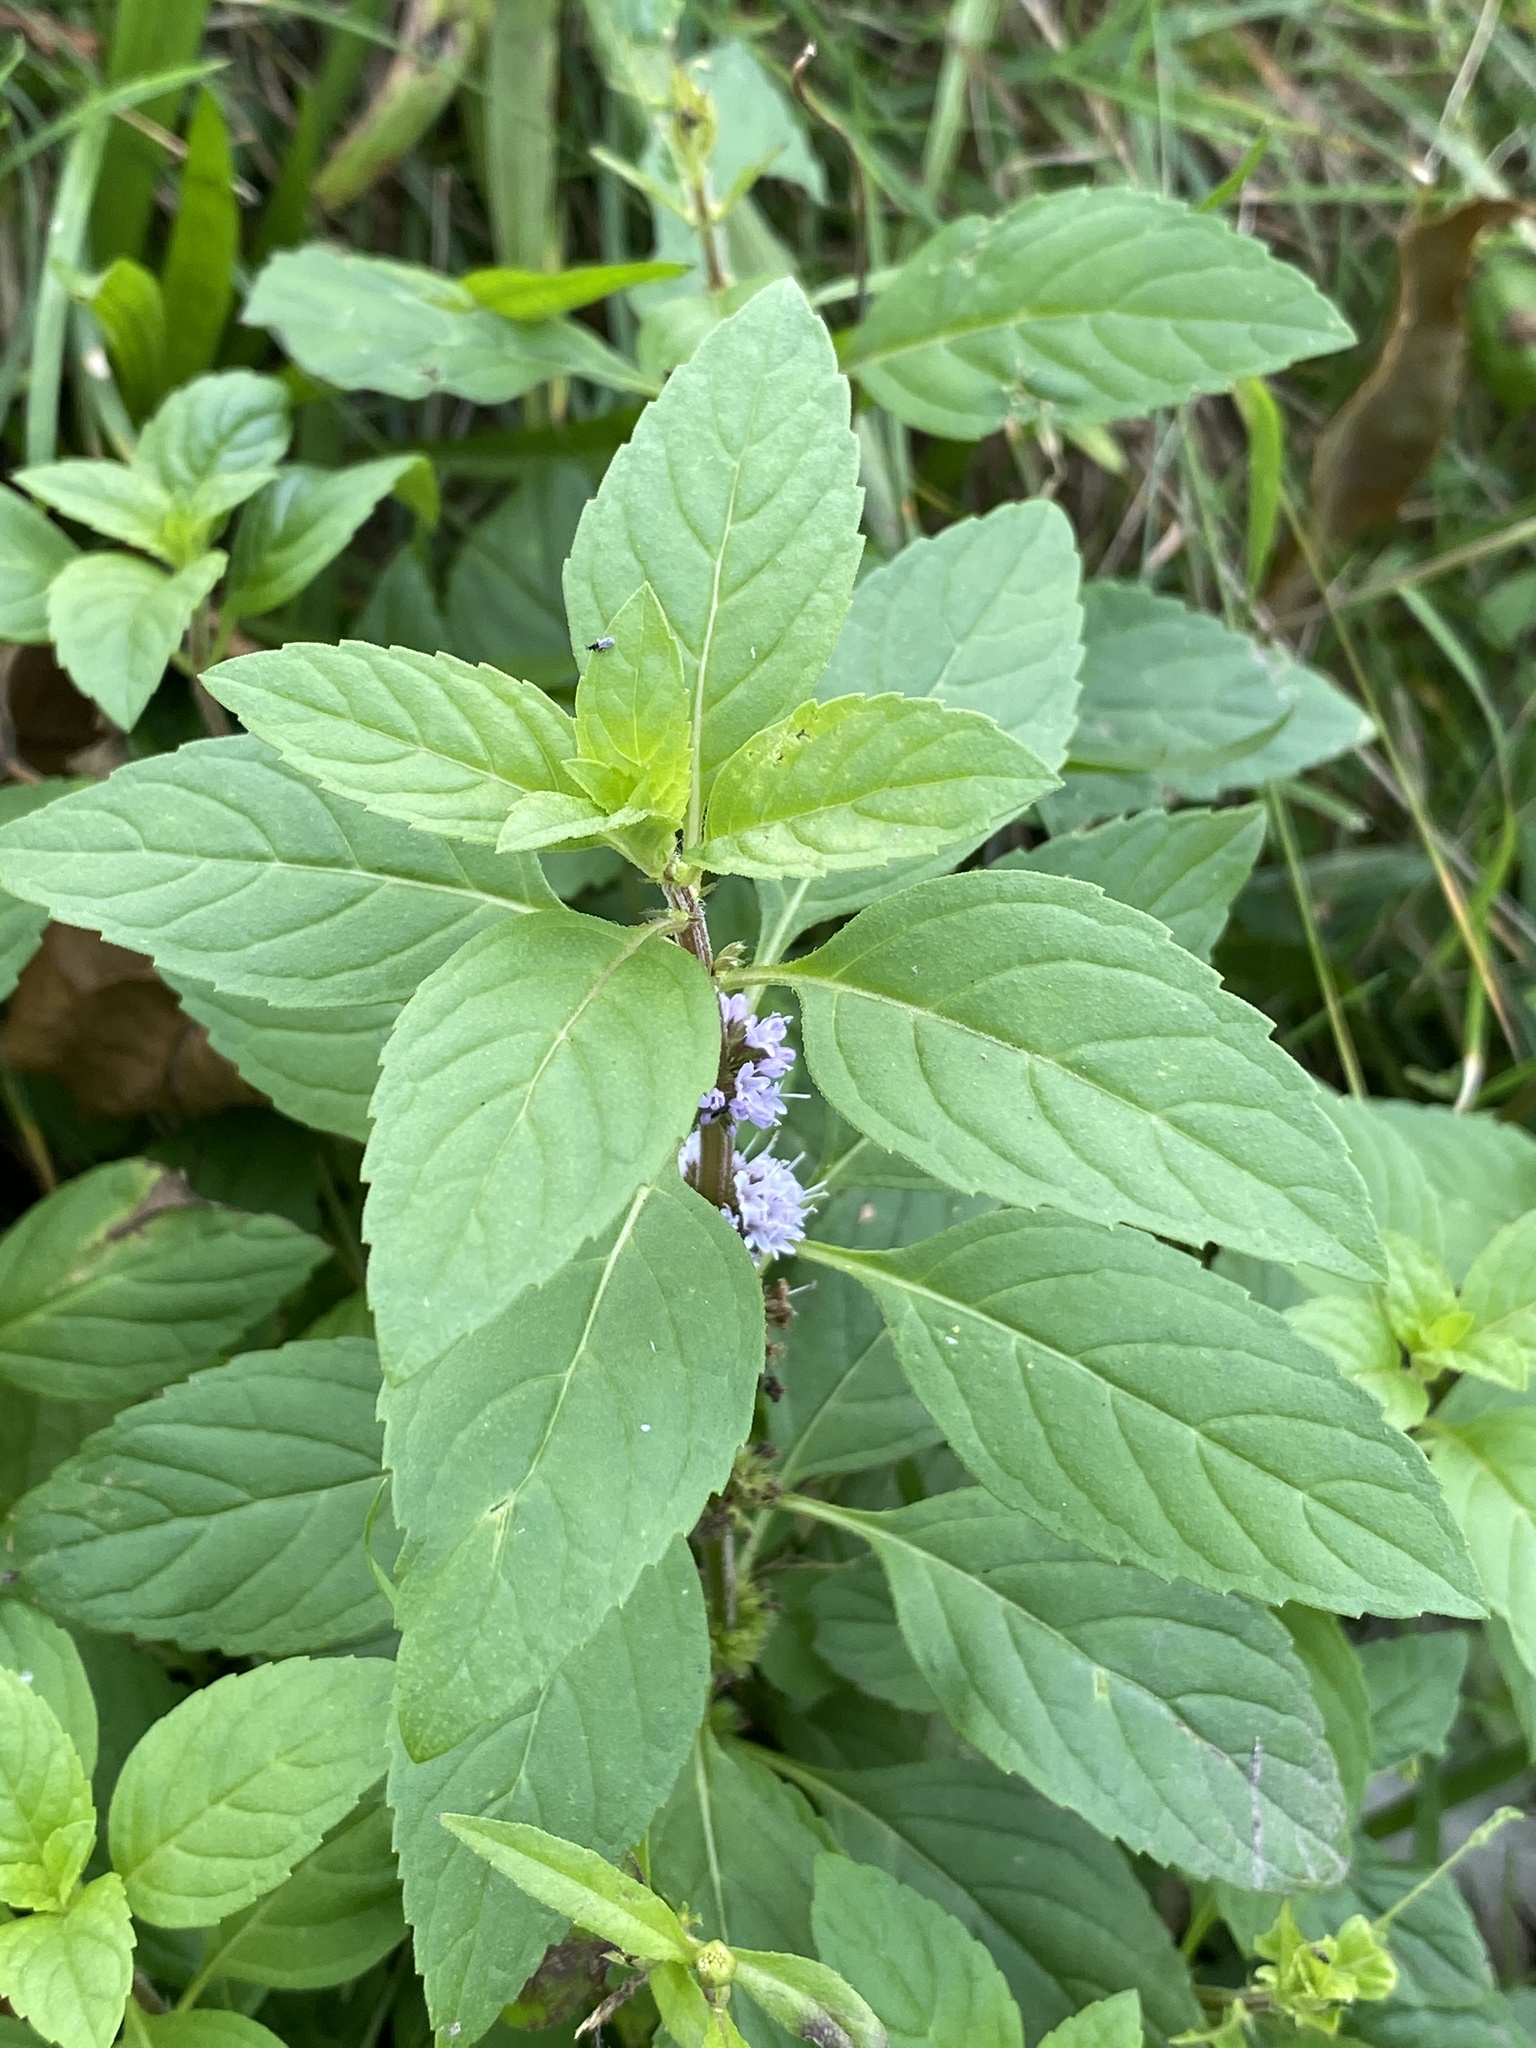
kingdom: Plantae
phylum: Tracheophyta
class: Magnoliopsida
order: Lamiales
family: Lamiaceae
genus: Mentha
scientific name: Mentha arvensis
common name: Corn mint
